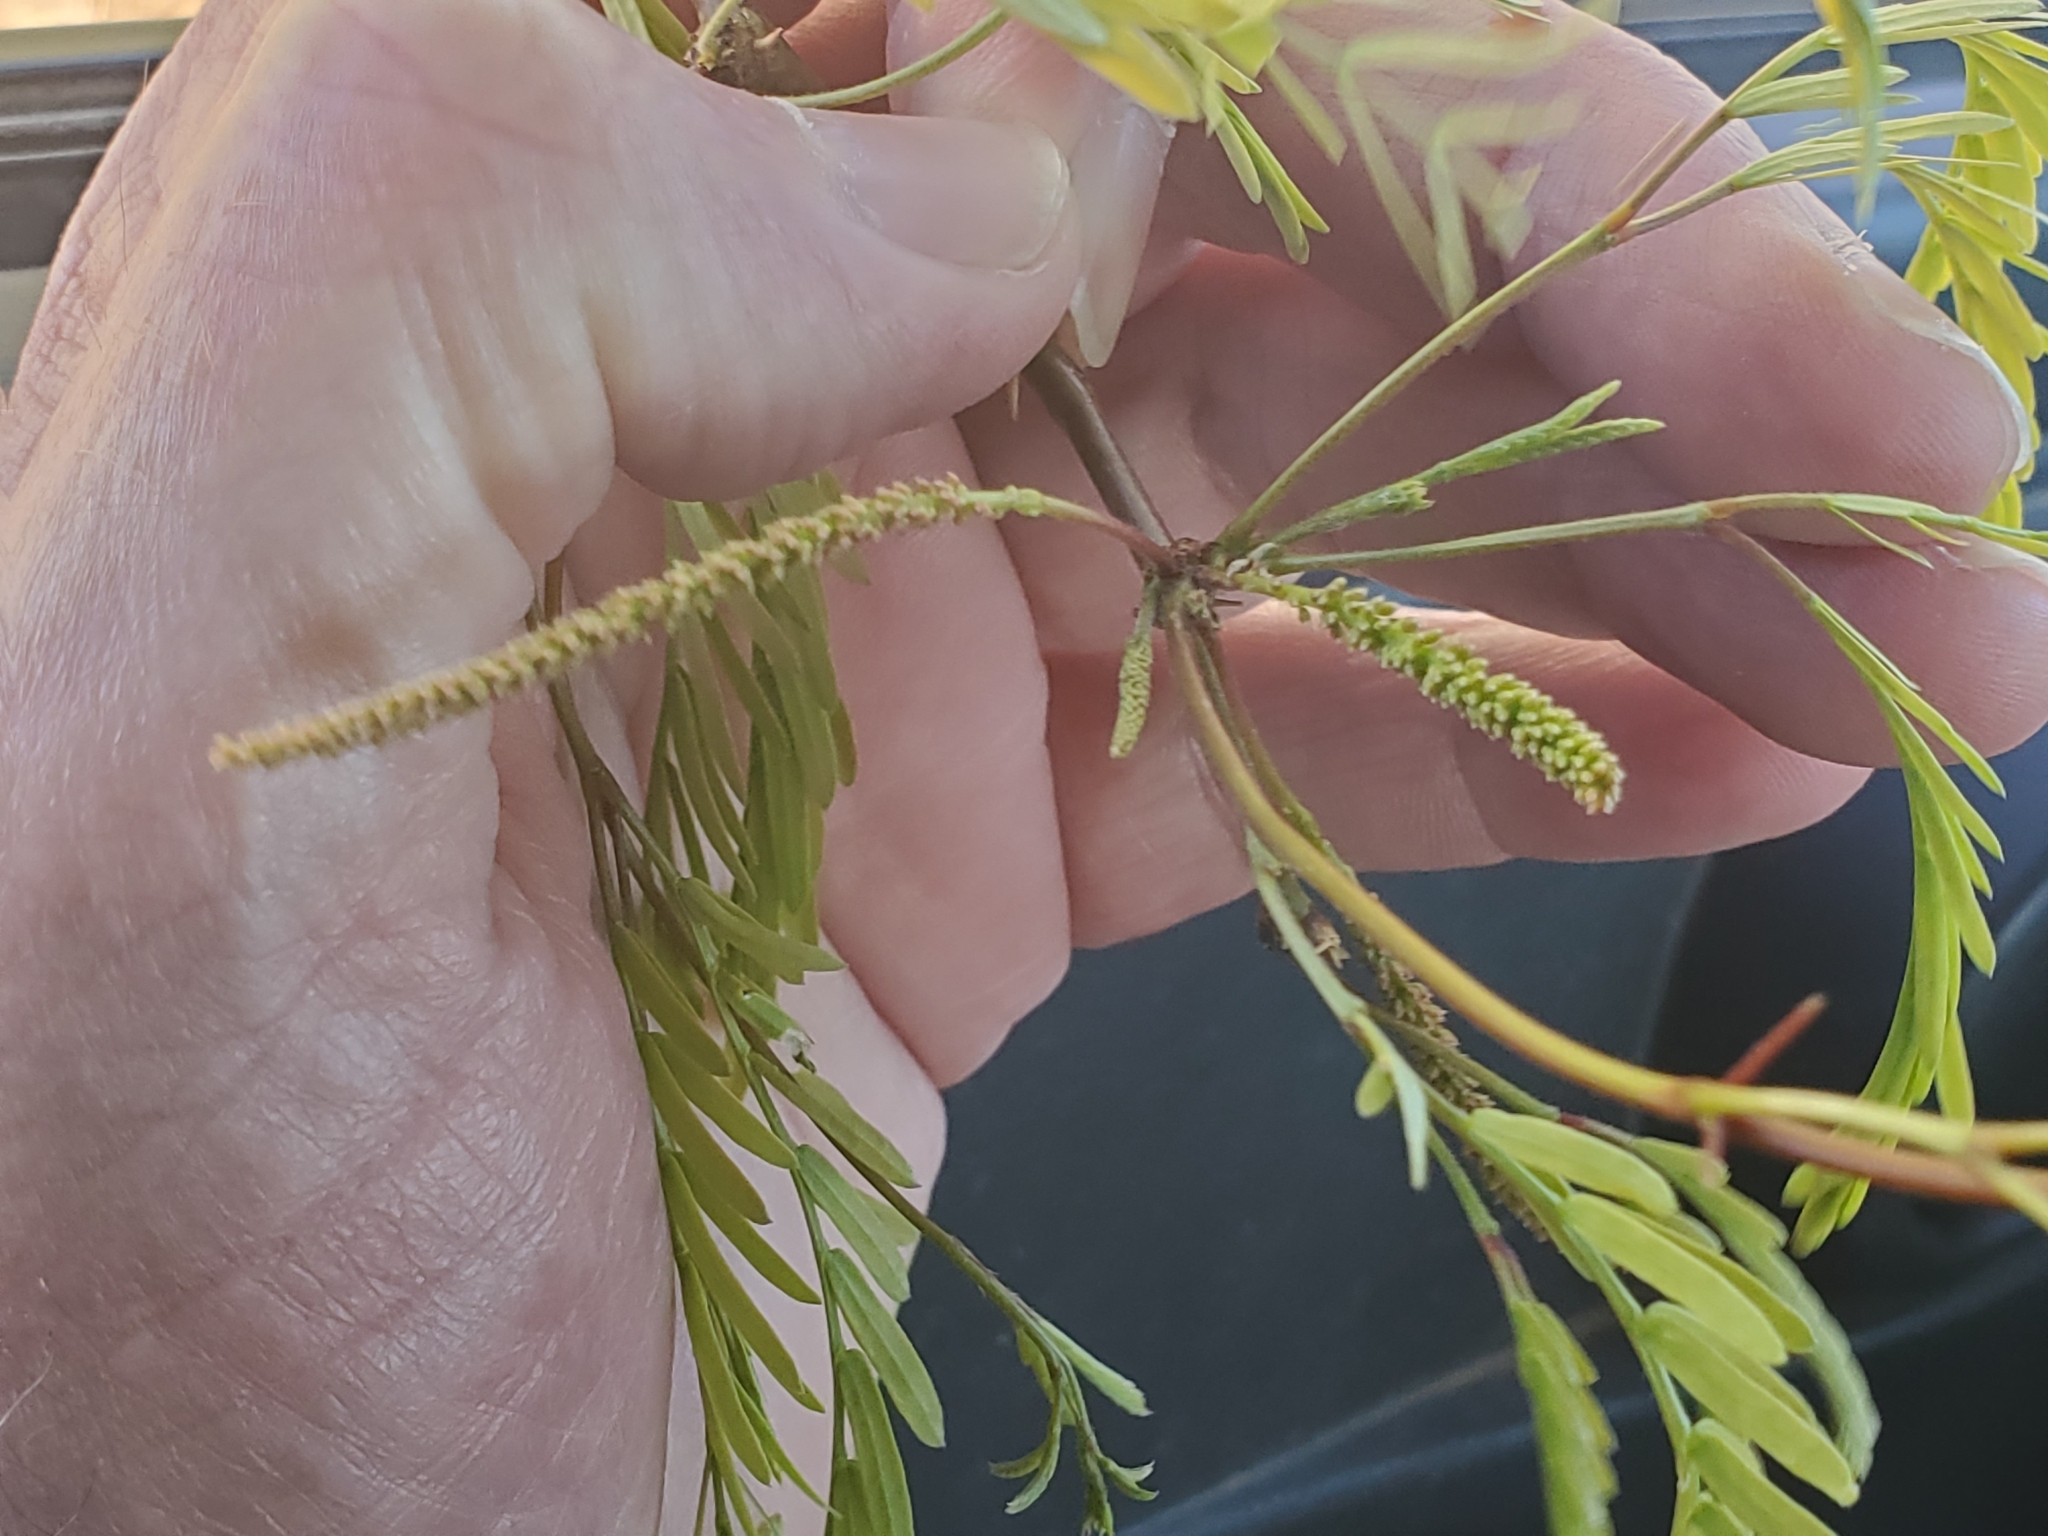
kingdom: Plantae
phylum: Tracheophyta
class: Magnoliopsida
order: Fabales
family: Fabaceae
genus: Prosopis
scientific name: Prosopis pubescens
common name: Screw-bean
